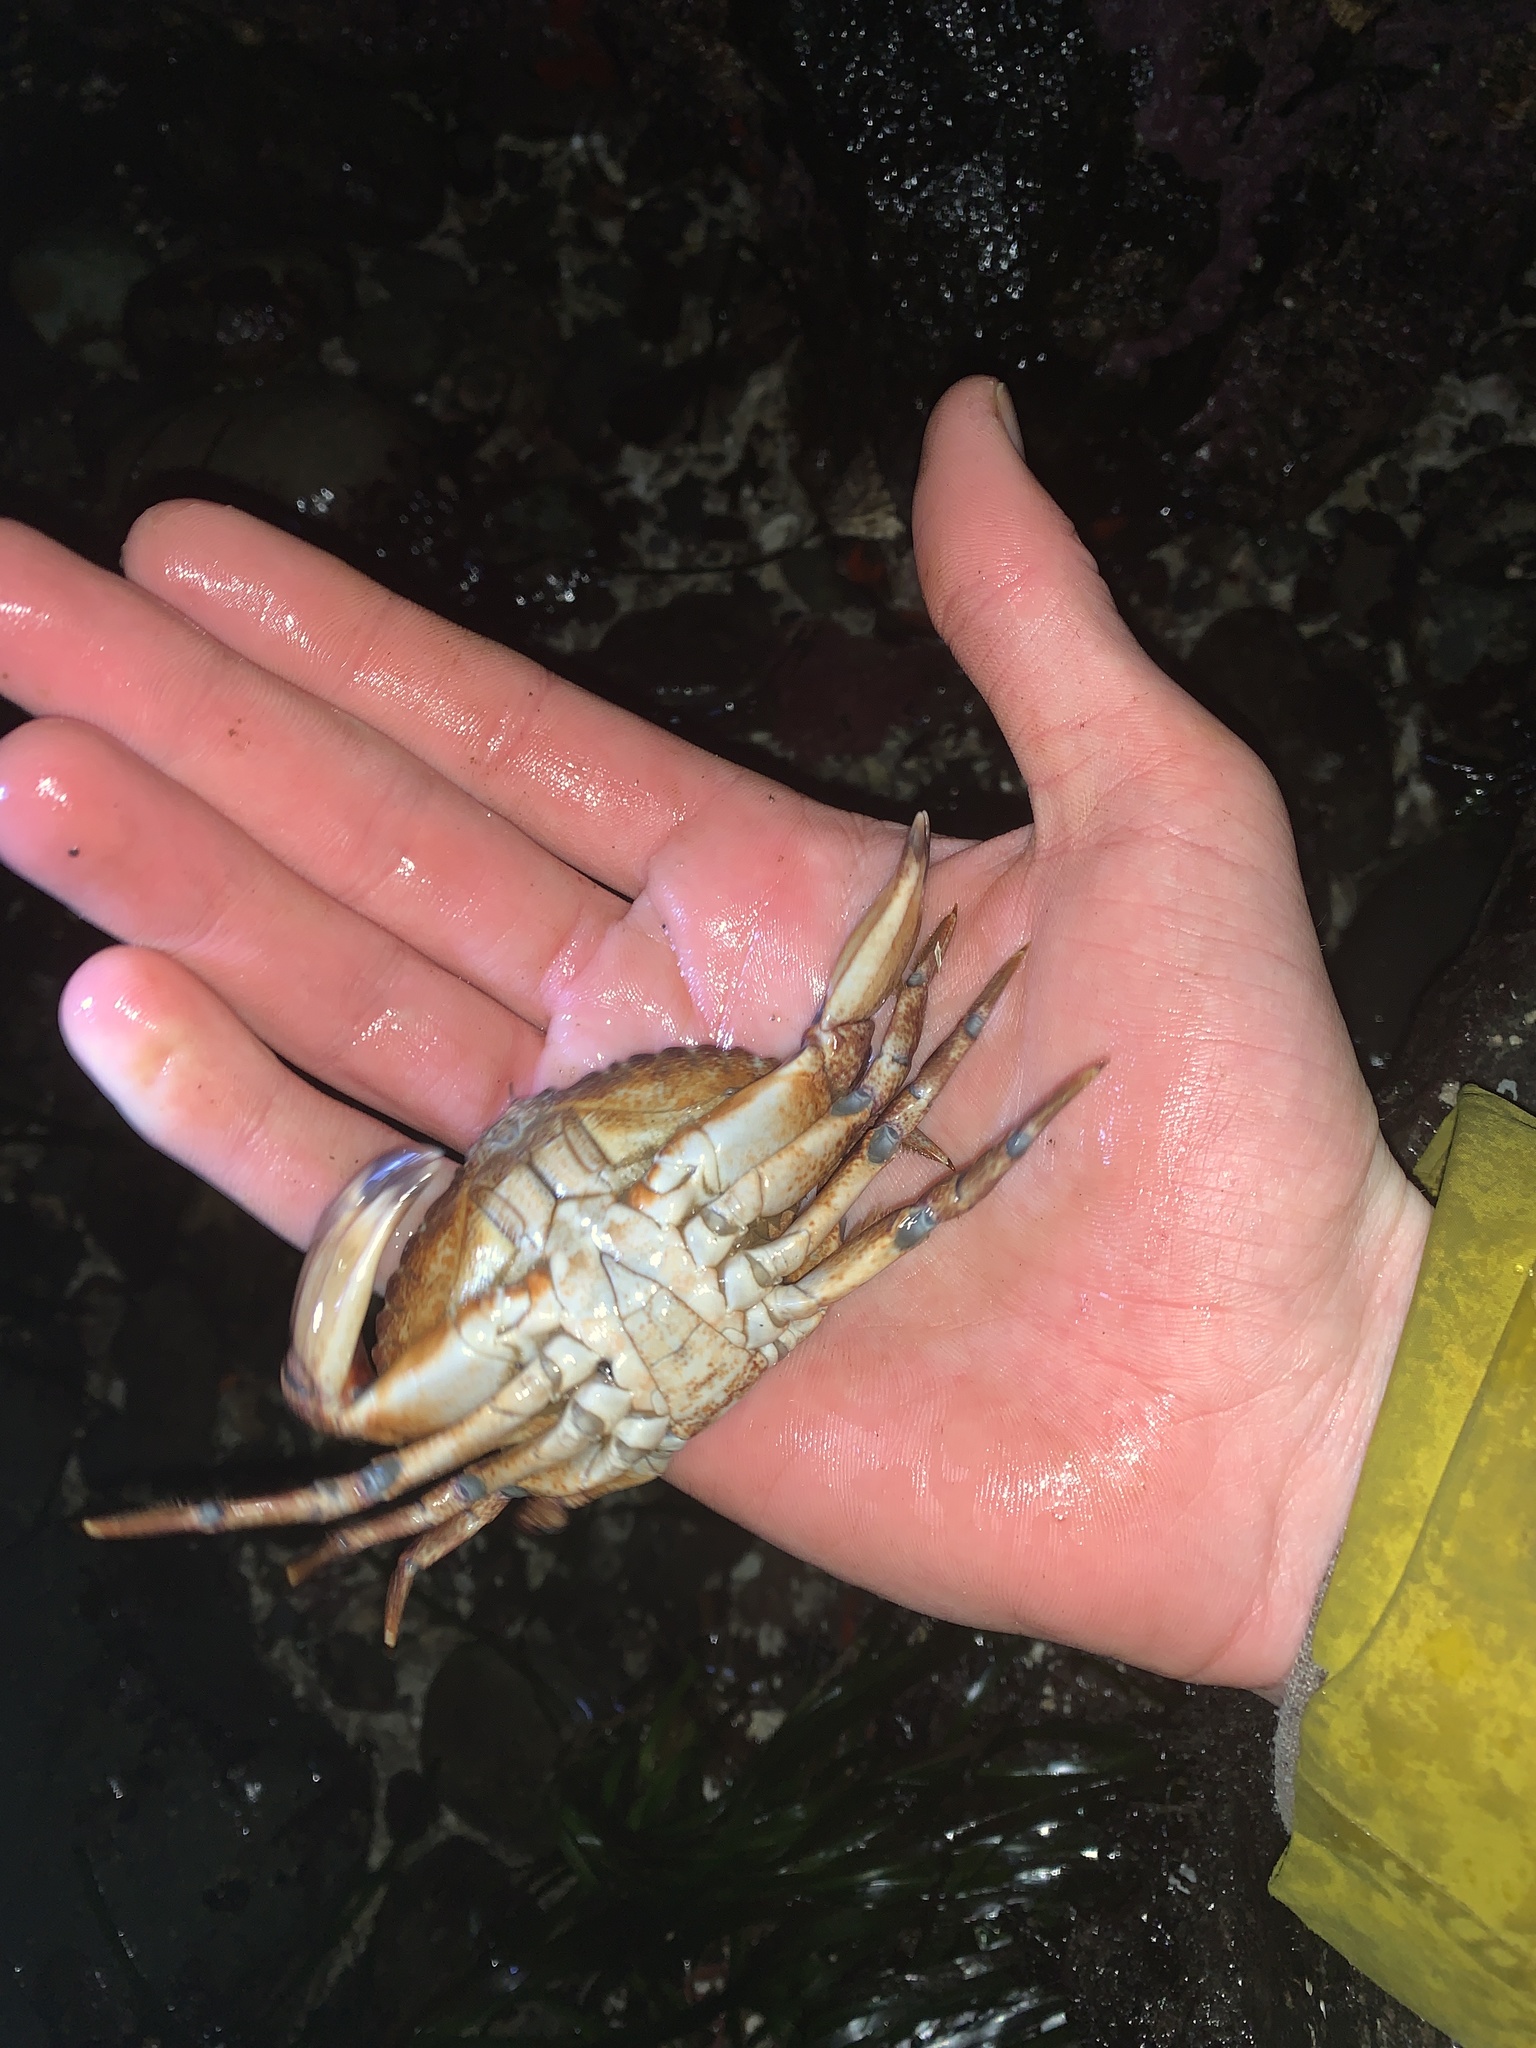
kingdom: Animalia
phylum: Arthropoda
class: Malacostraca
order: Decapoda
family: Cancridae
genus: Cancer
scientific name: Cancer productus
